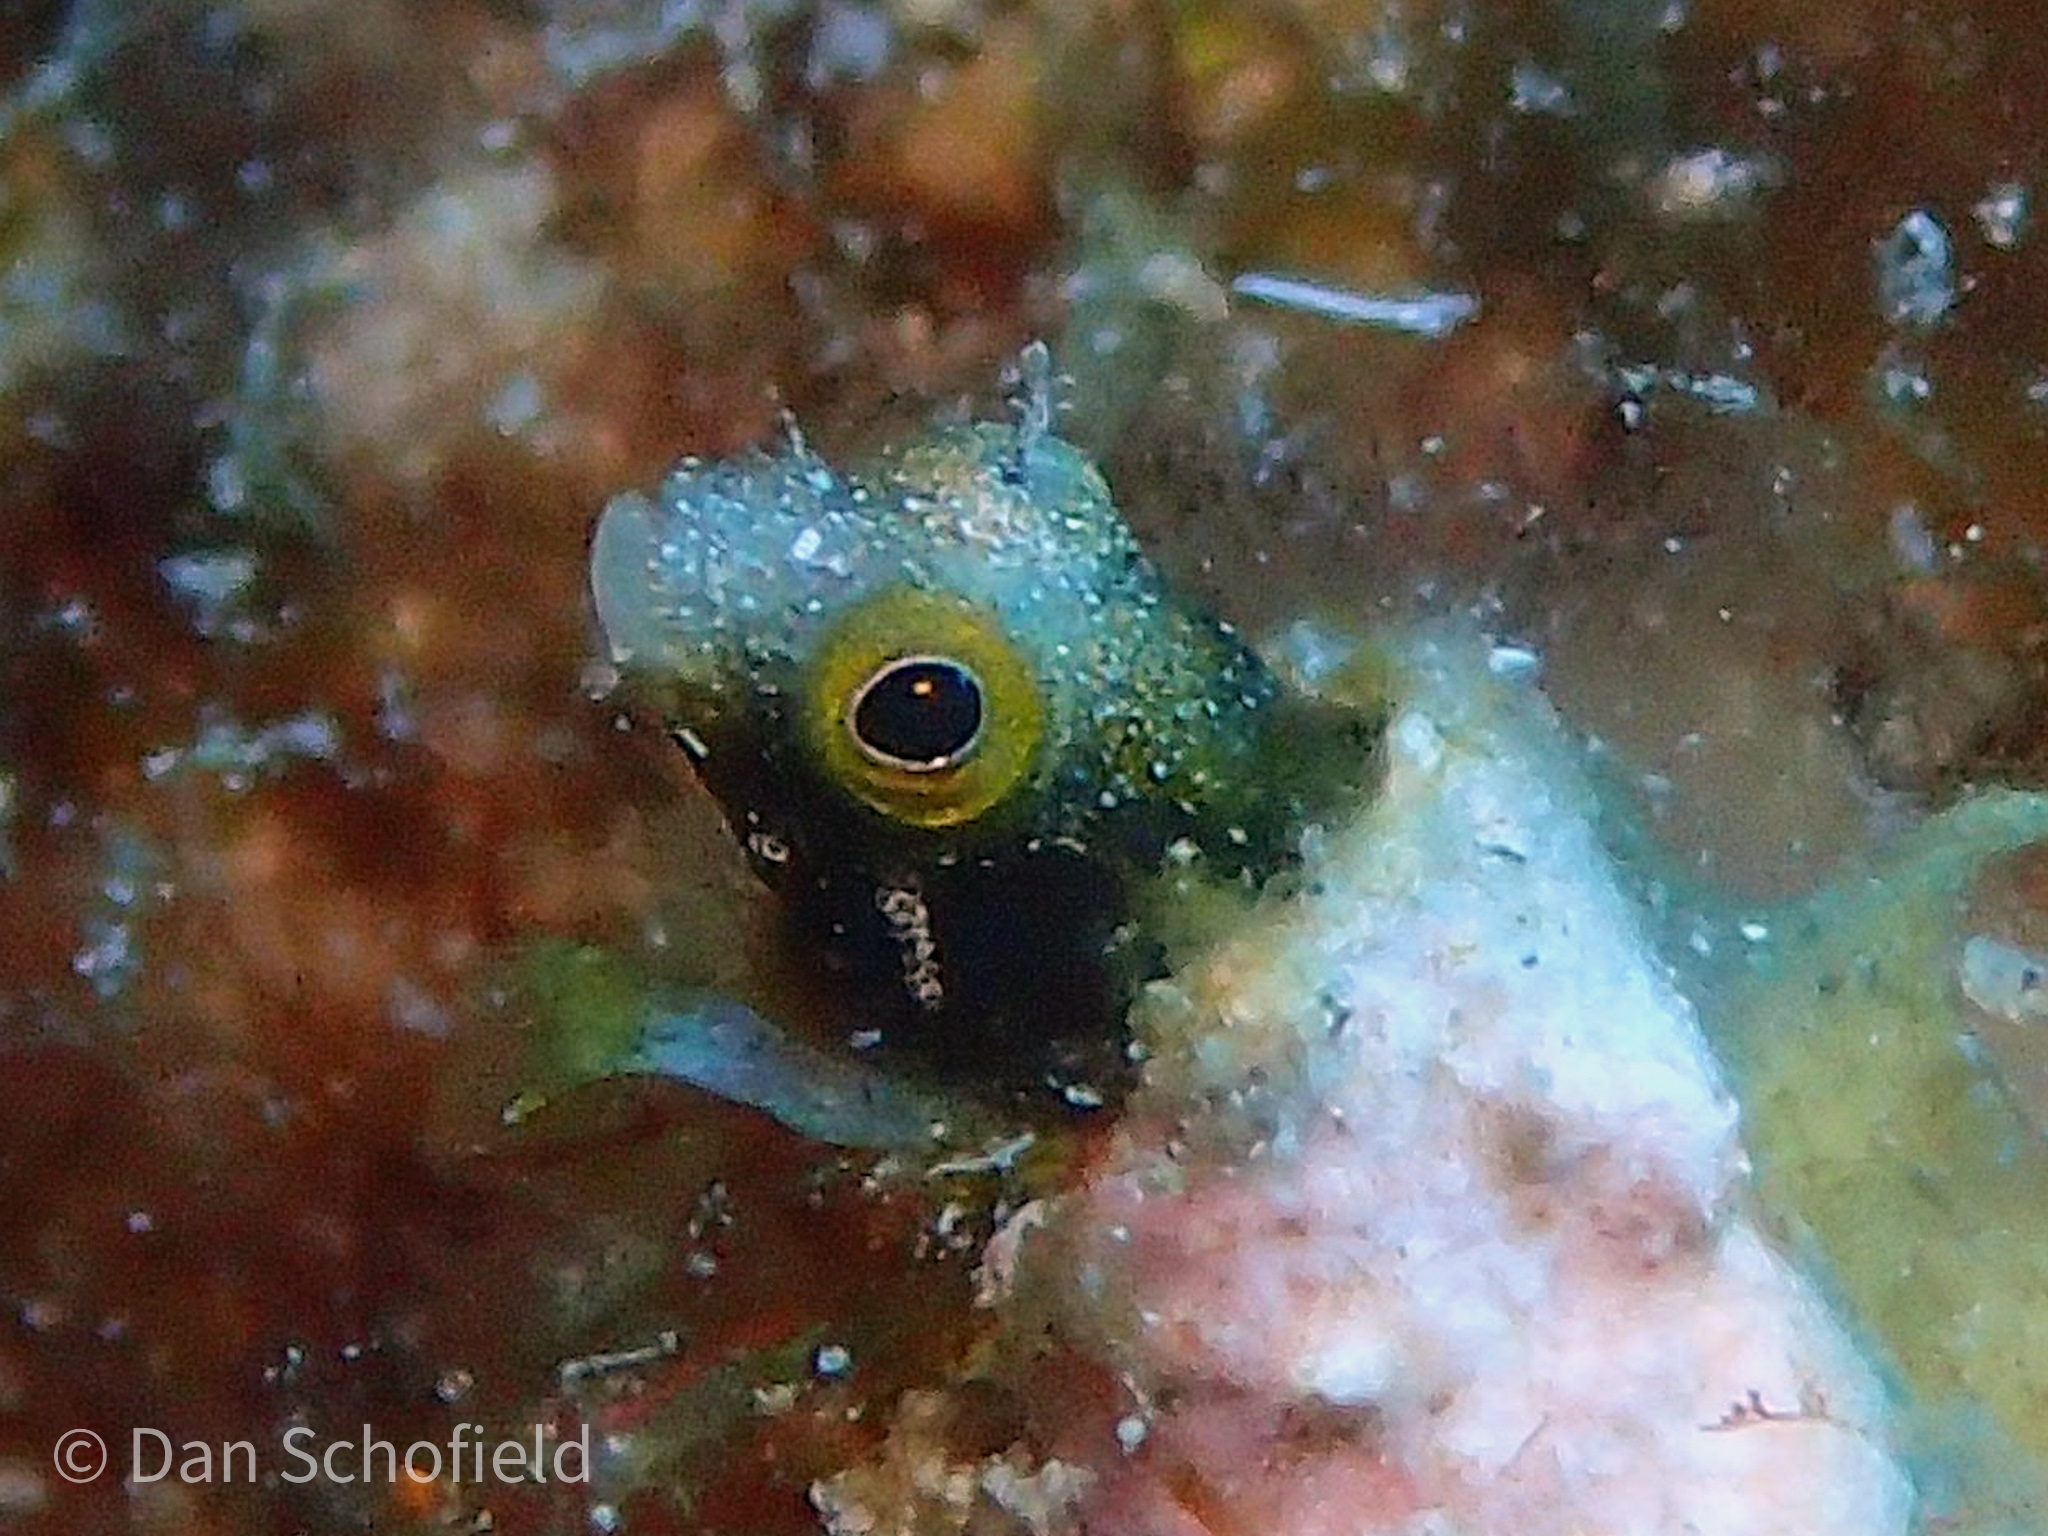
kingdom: Animalia
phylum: Chordata
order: Perciformes
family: Chaenopsidae
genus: Acanthemblemaria
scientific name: Acanthemblemaria spinosa
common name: Spinyhead blenny
